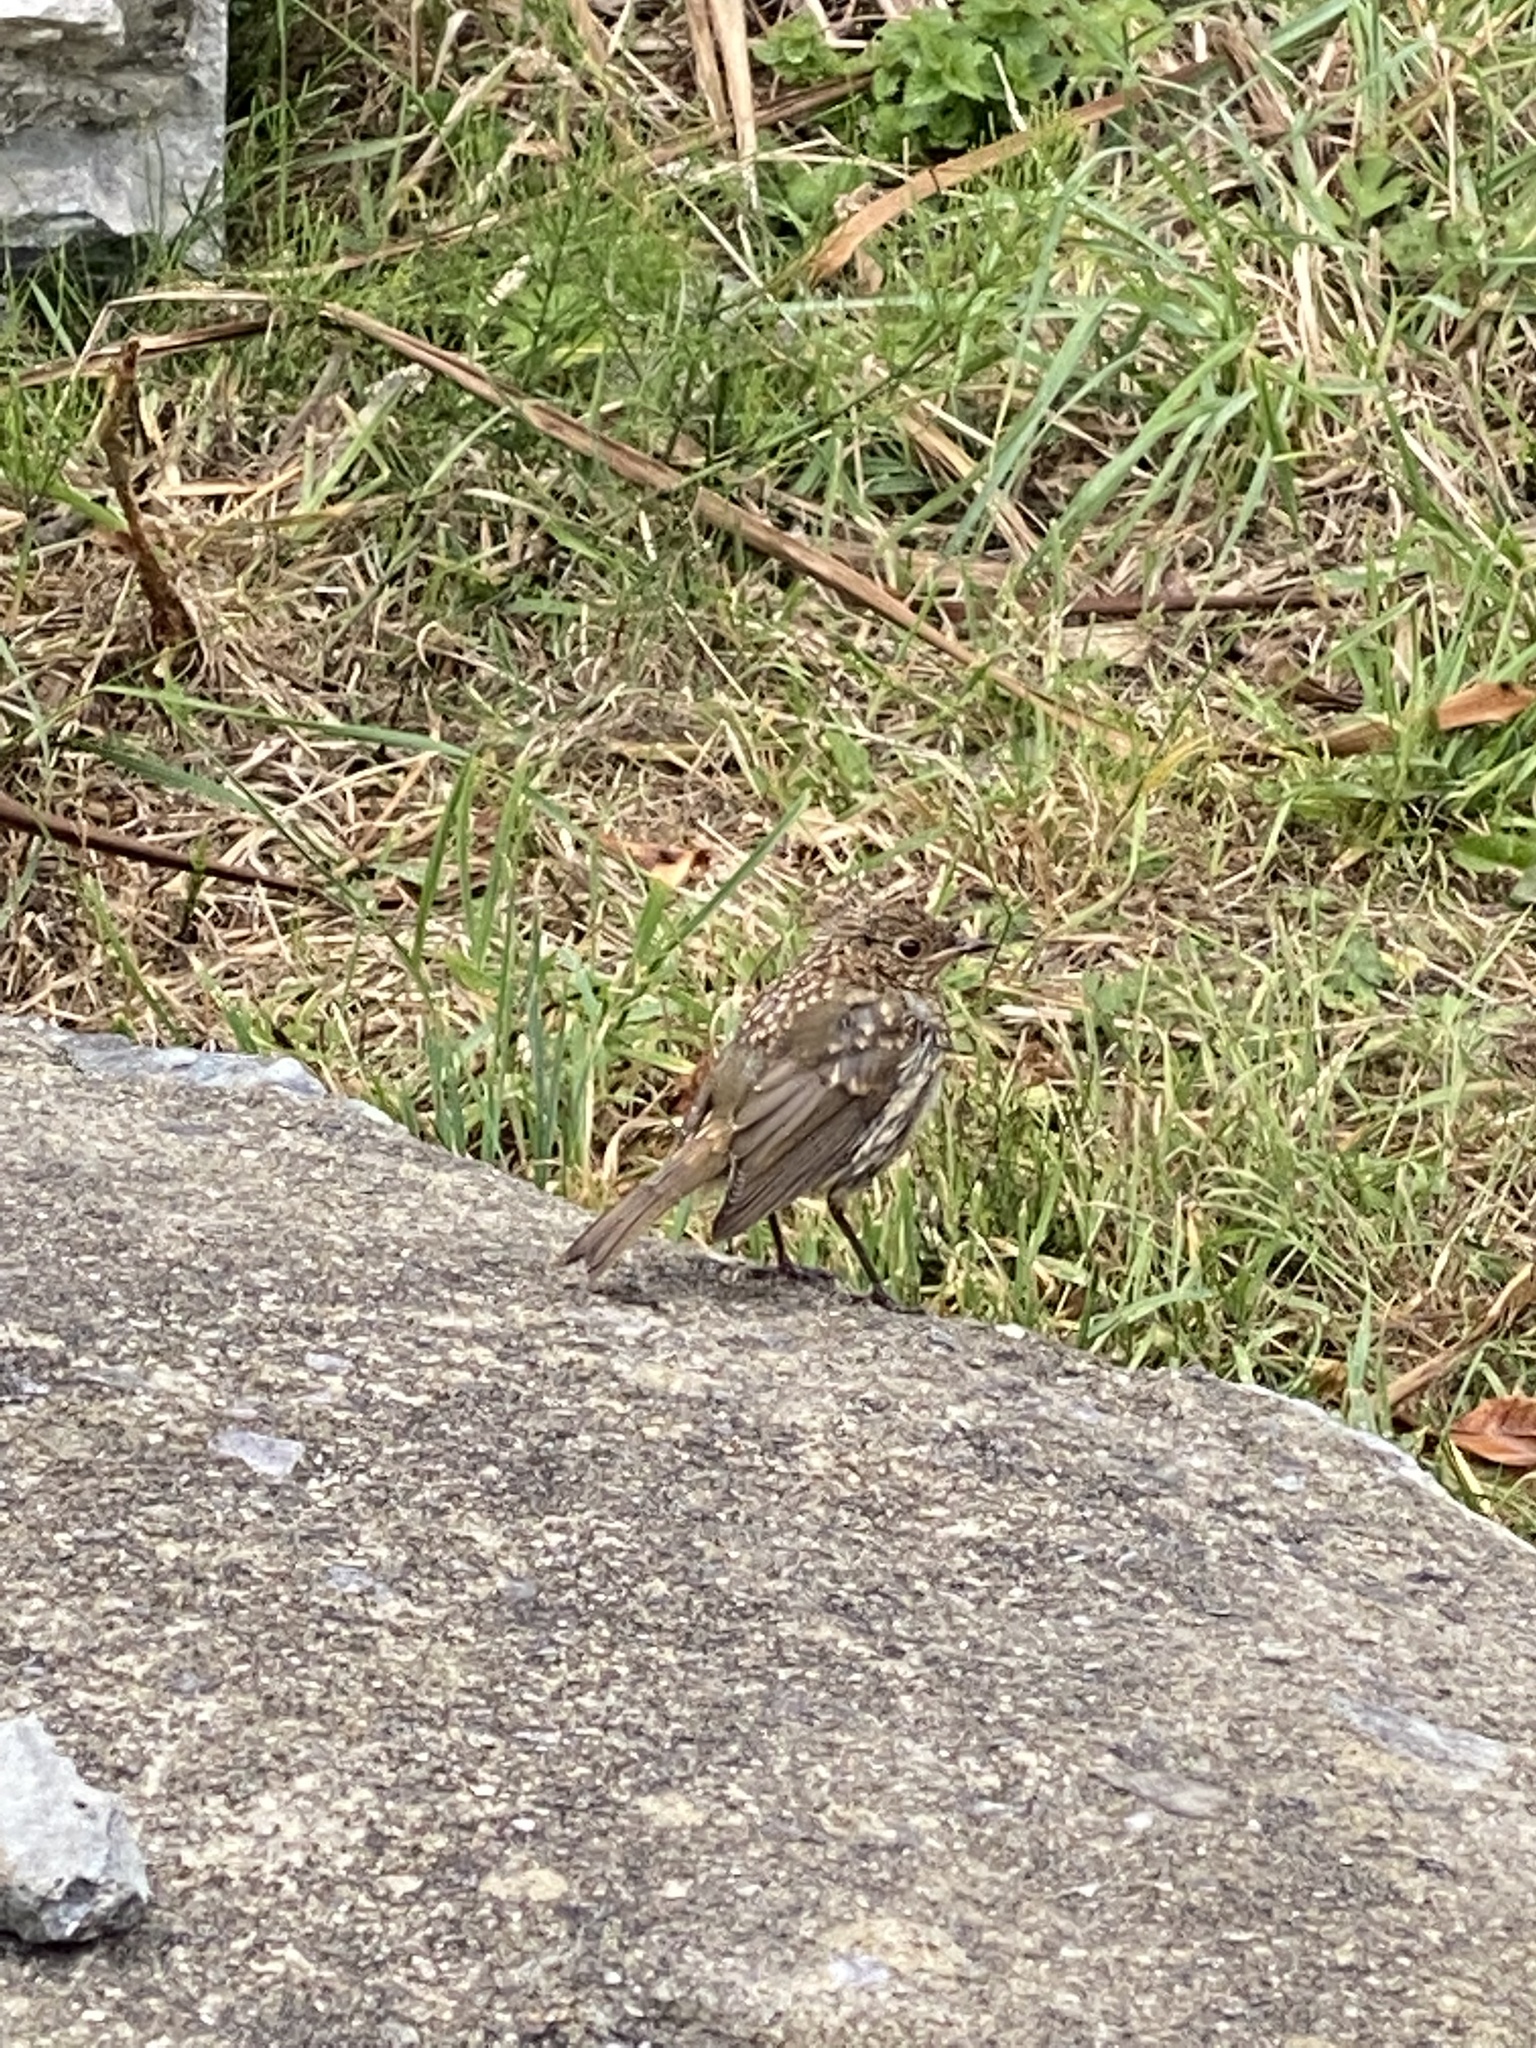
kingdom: Animalia
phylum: Chordata
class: Aves
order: Passeriformes
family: Muscicapidae
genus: Erithacus
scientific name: Erithacus rubecula
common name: European robin
